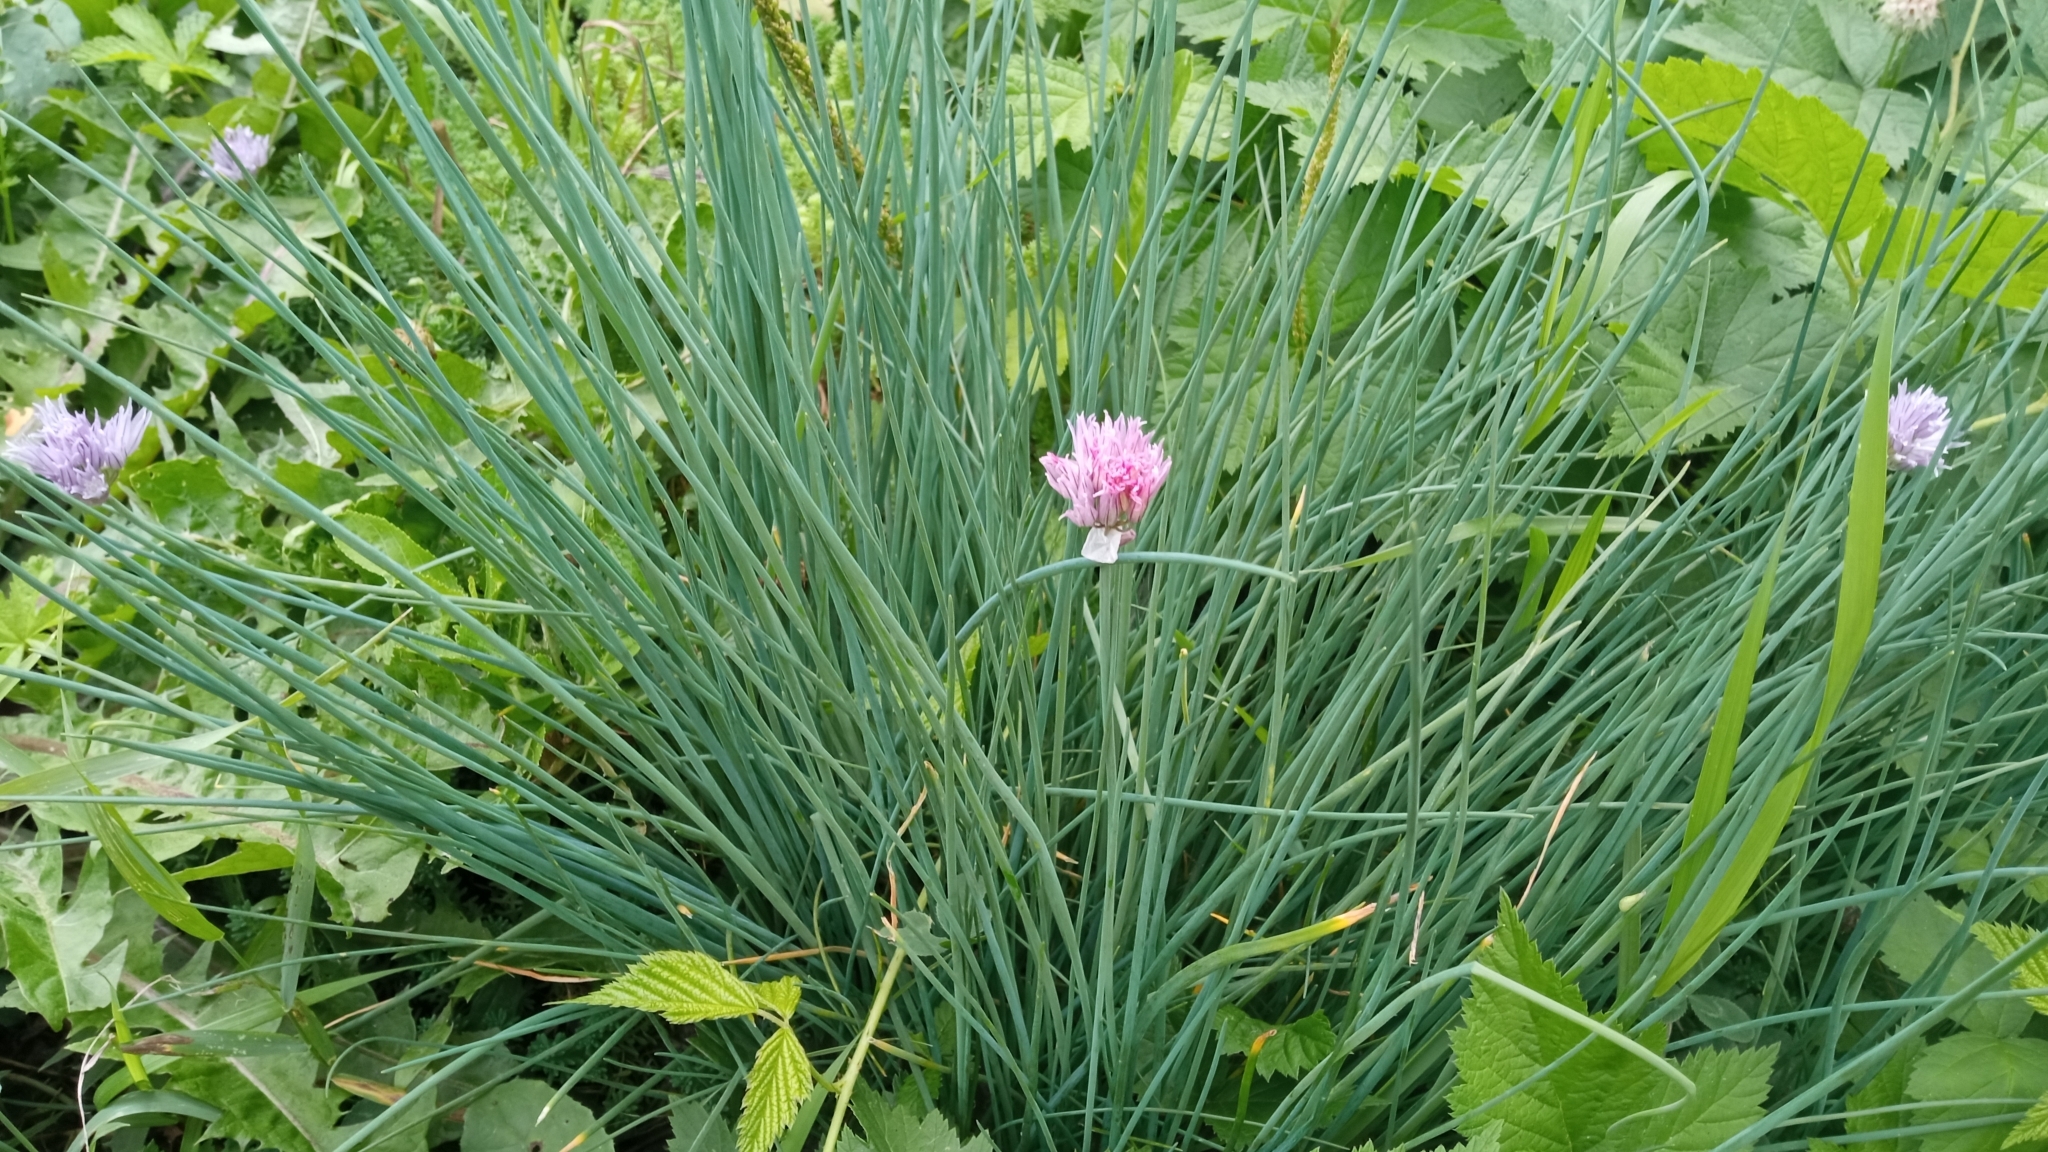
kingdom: Plantae
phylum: Tracheophyta
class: Liliopsida
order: Asparagales
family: Amaryllidaceae
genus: Allium
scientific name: Allium schoenoprasum
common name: Chives
